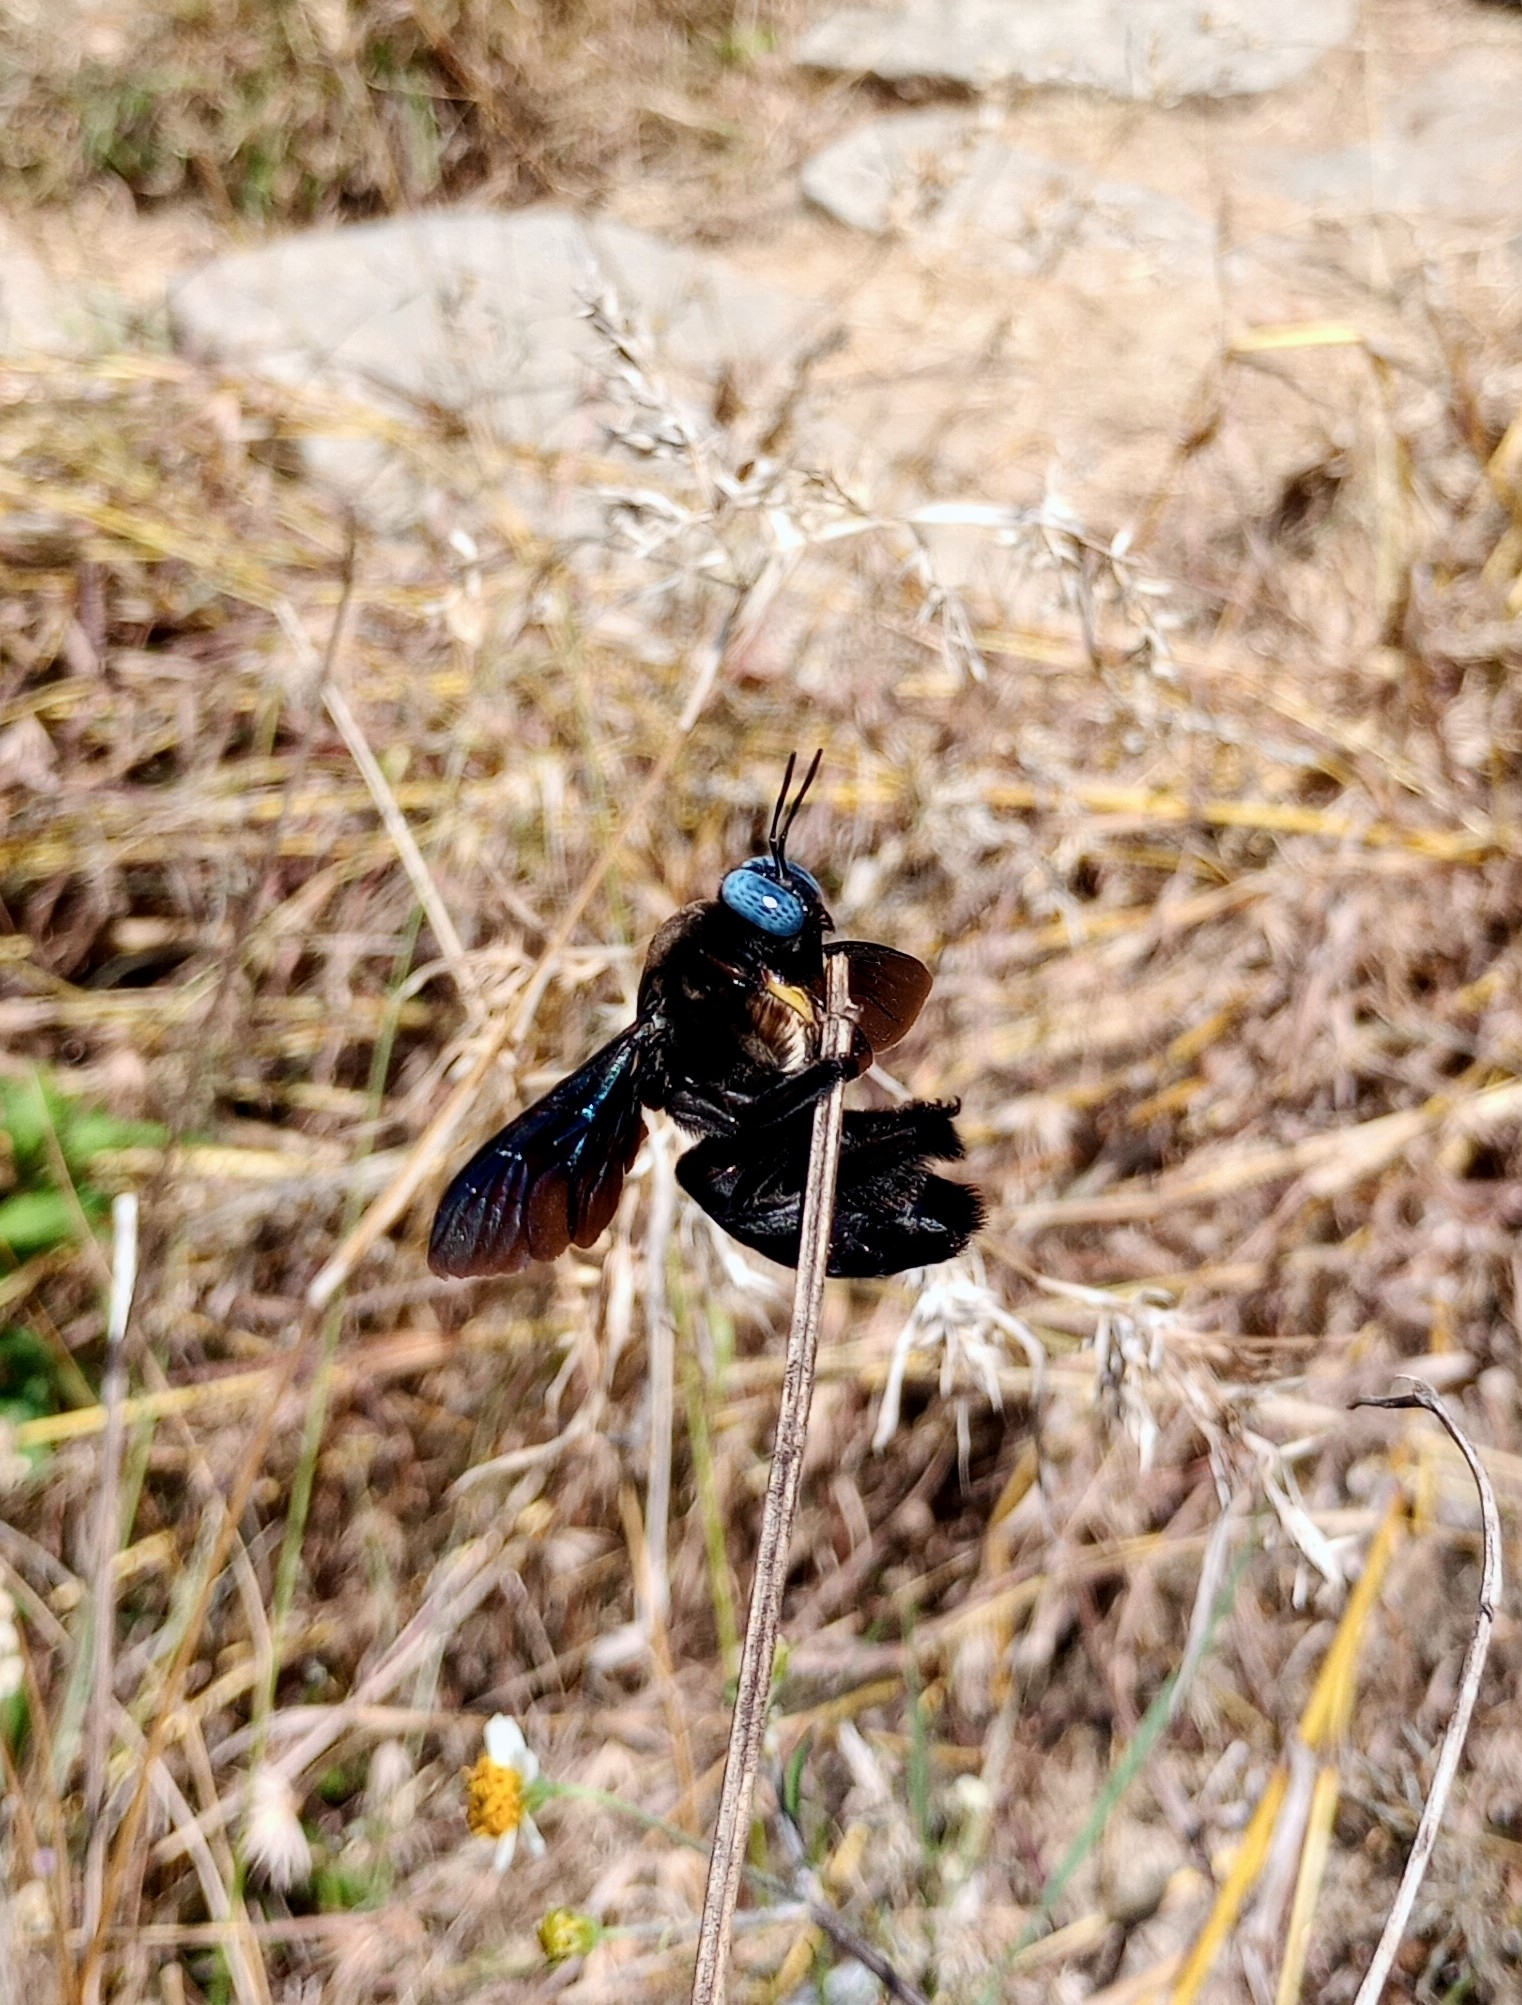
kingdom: Animalia
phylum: Arthropoda
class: Insecta
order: Hymenoptera
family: Apidae
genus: Xylocopa
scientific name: Xylocopa tenuiscapa
